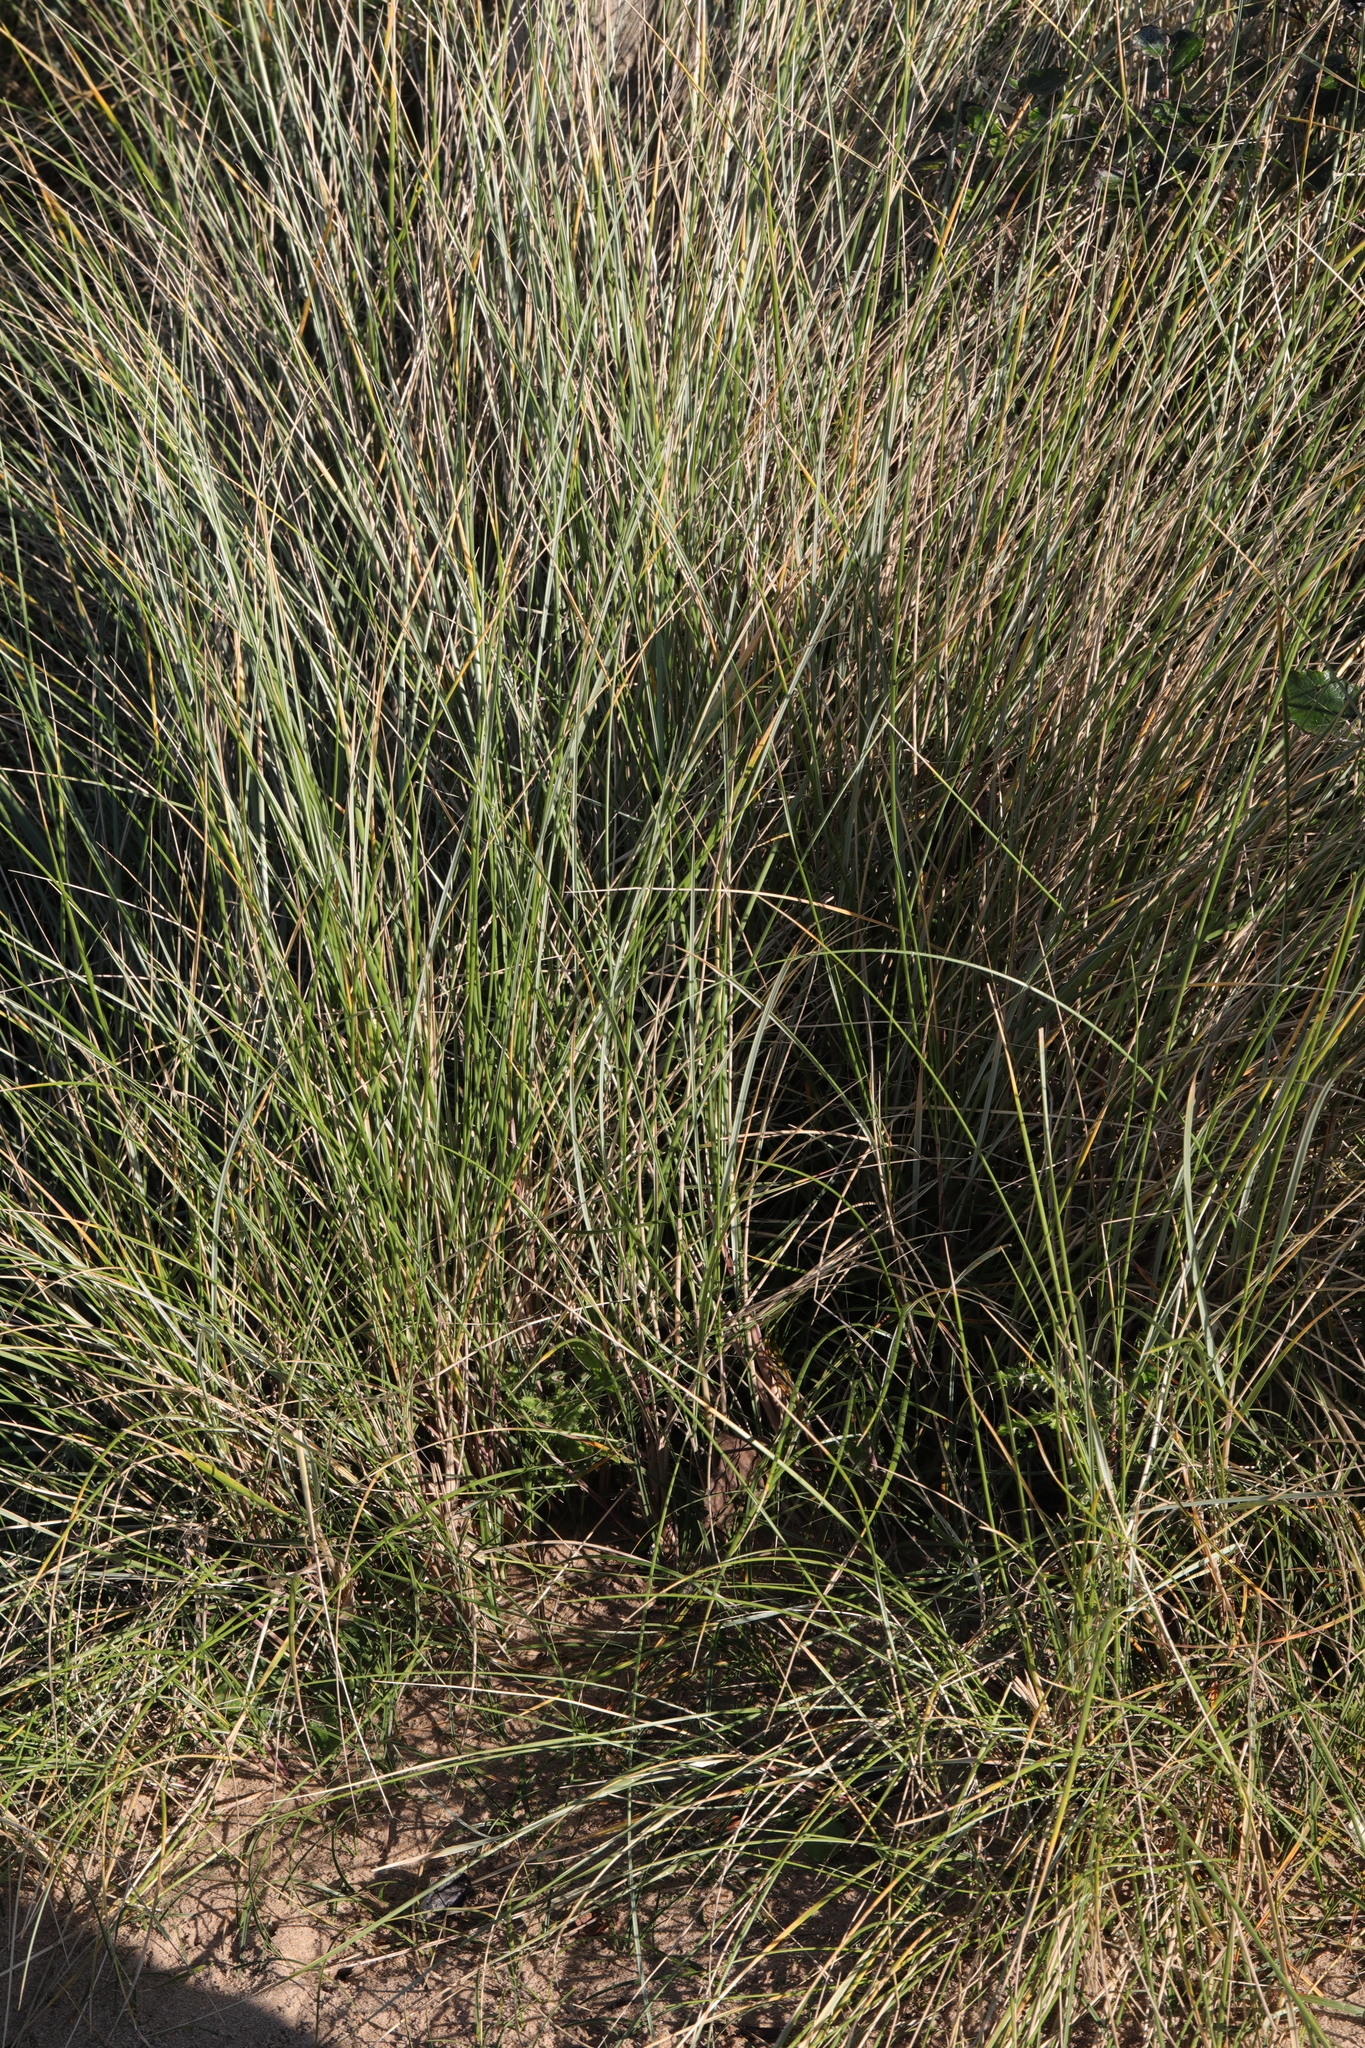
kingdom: Plantae
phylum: Tracheophyta
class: Liliopsida
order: Poales
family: Poaceae
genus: Calamagrostis
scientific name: Calamagrostis arenaria
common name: European beachgrass
